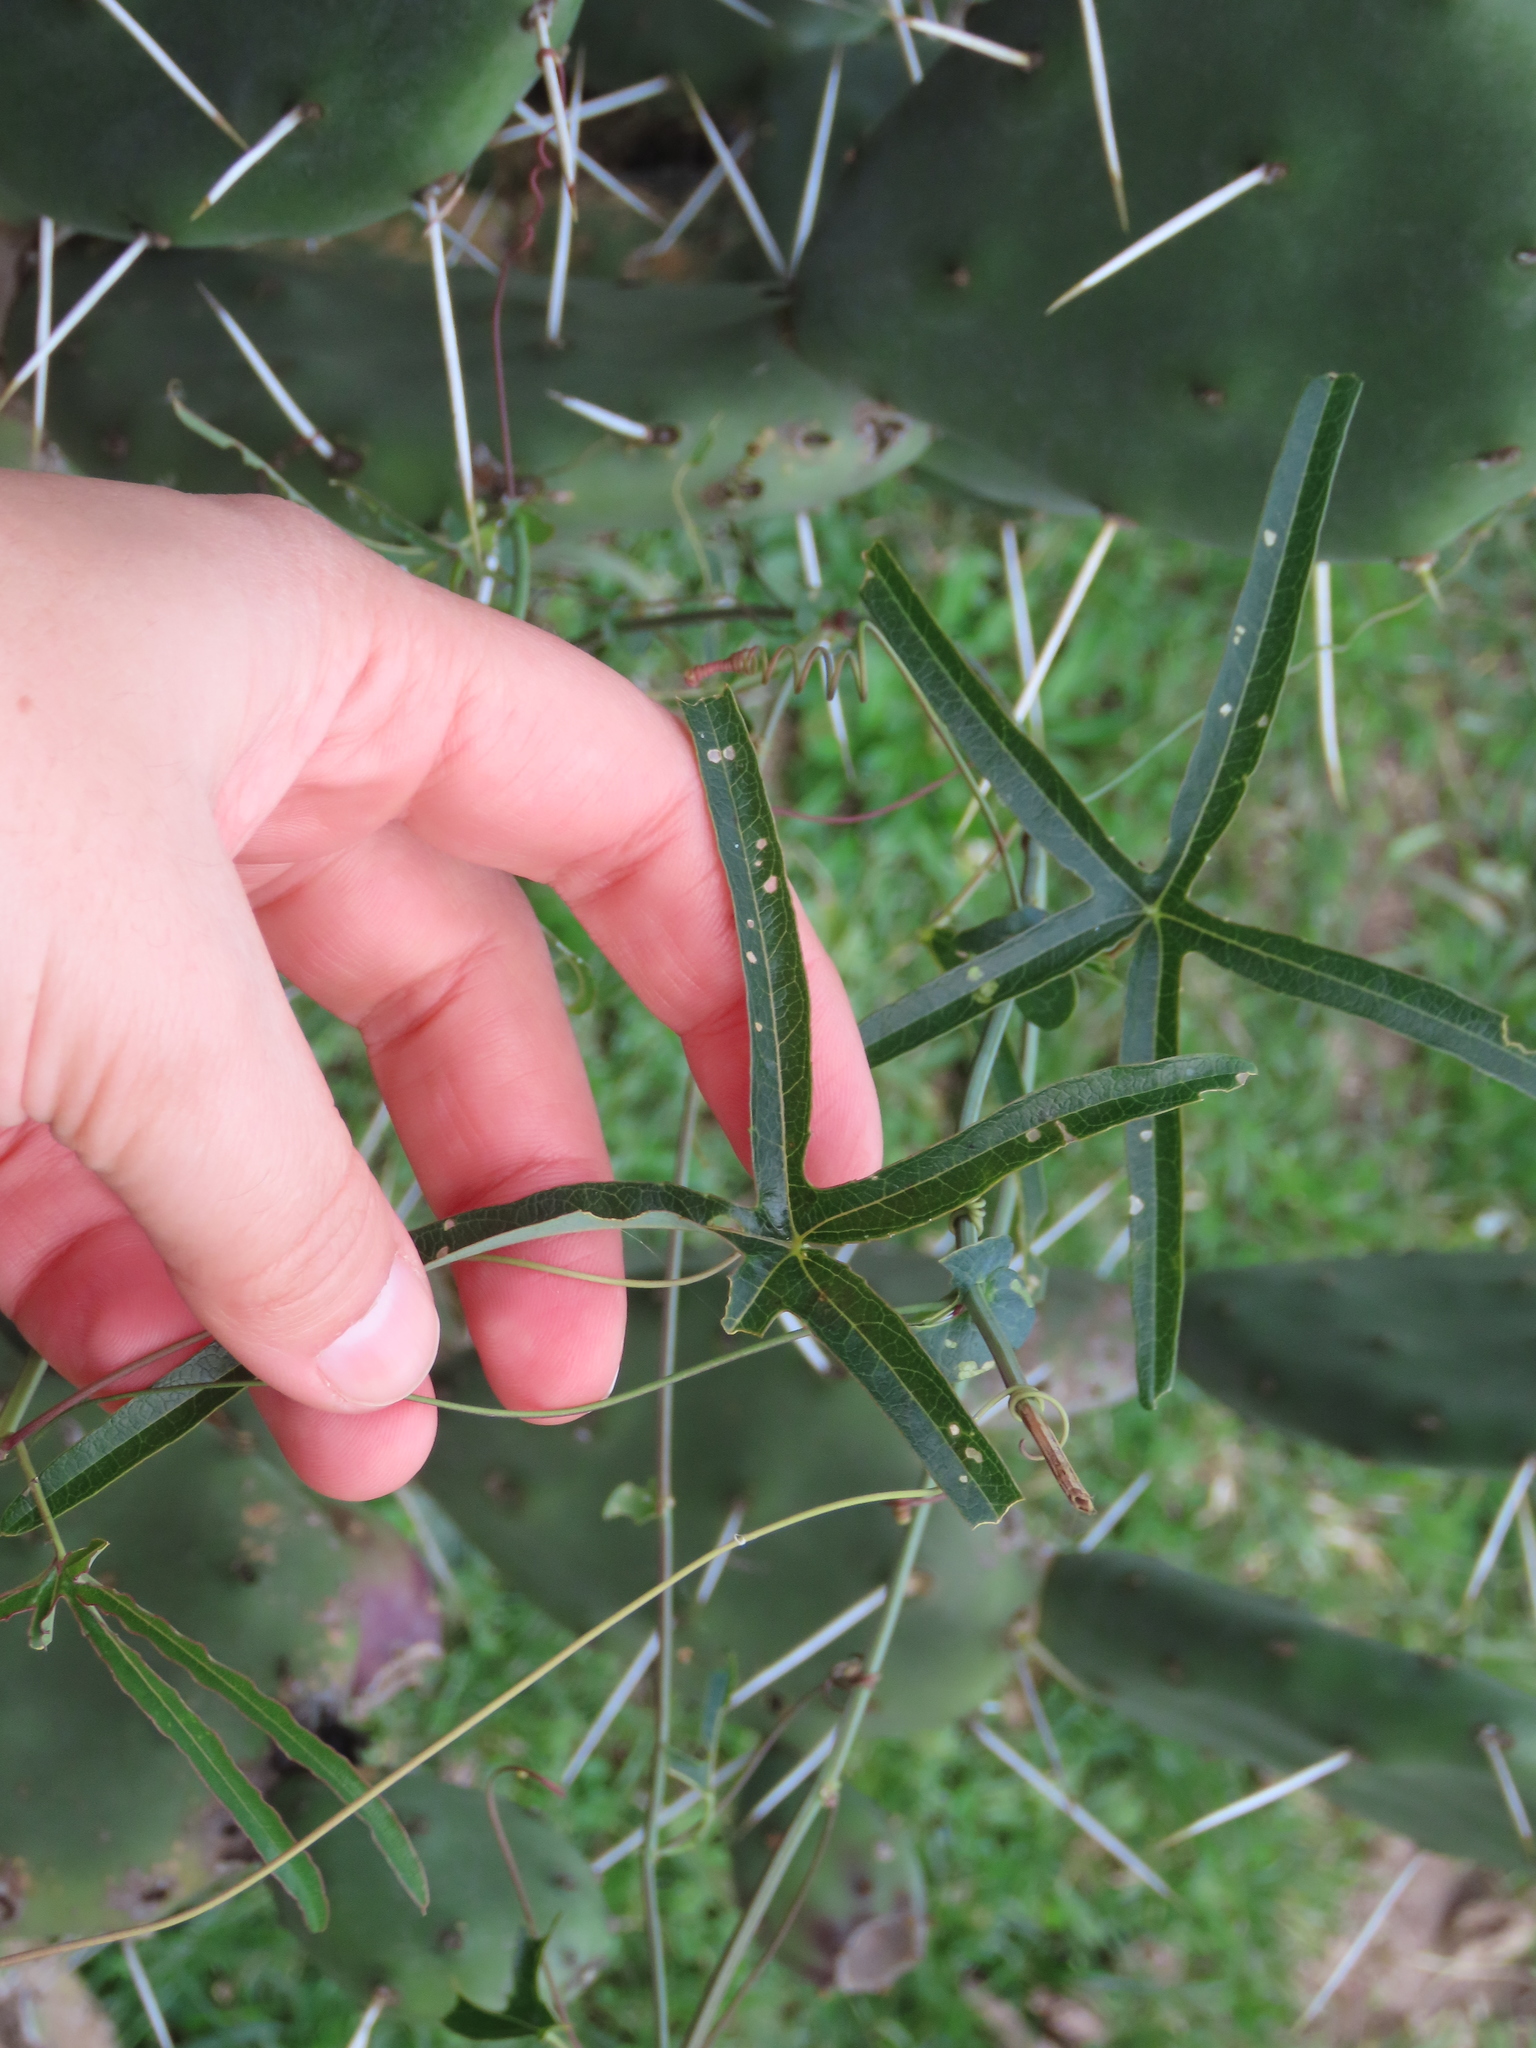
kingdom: Plantae
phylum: Tracheophyta
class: Magnoliopsida
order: Malpighiales
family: Passifloraceae
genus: Passiflora
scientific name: Passiflora caerulea
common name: Blue passionflower
